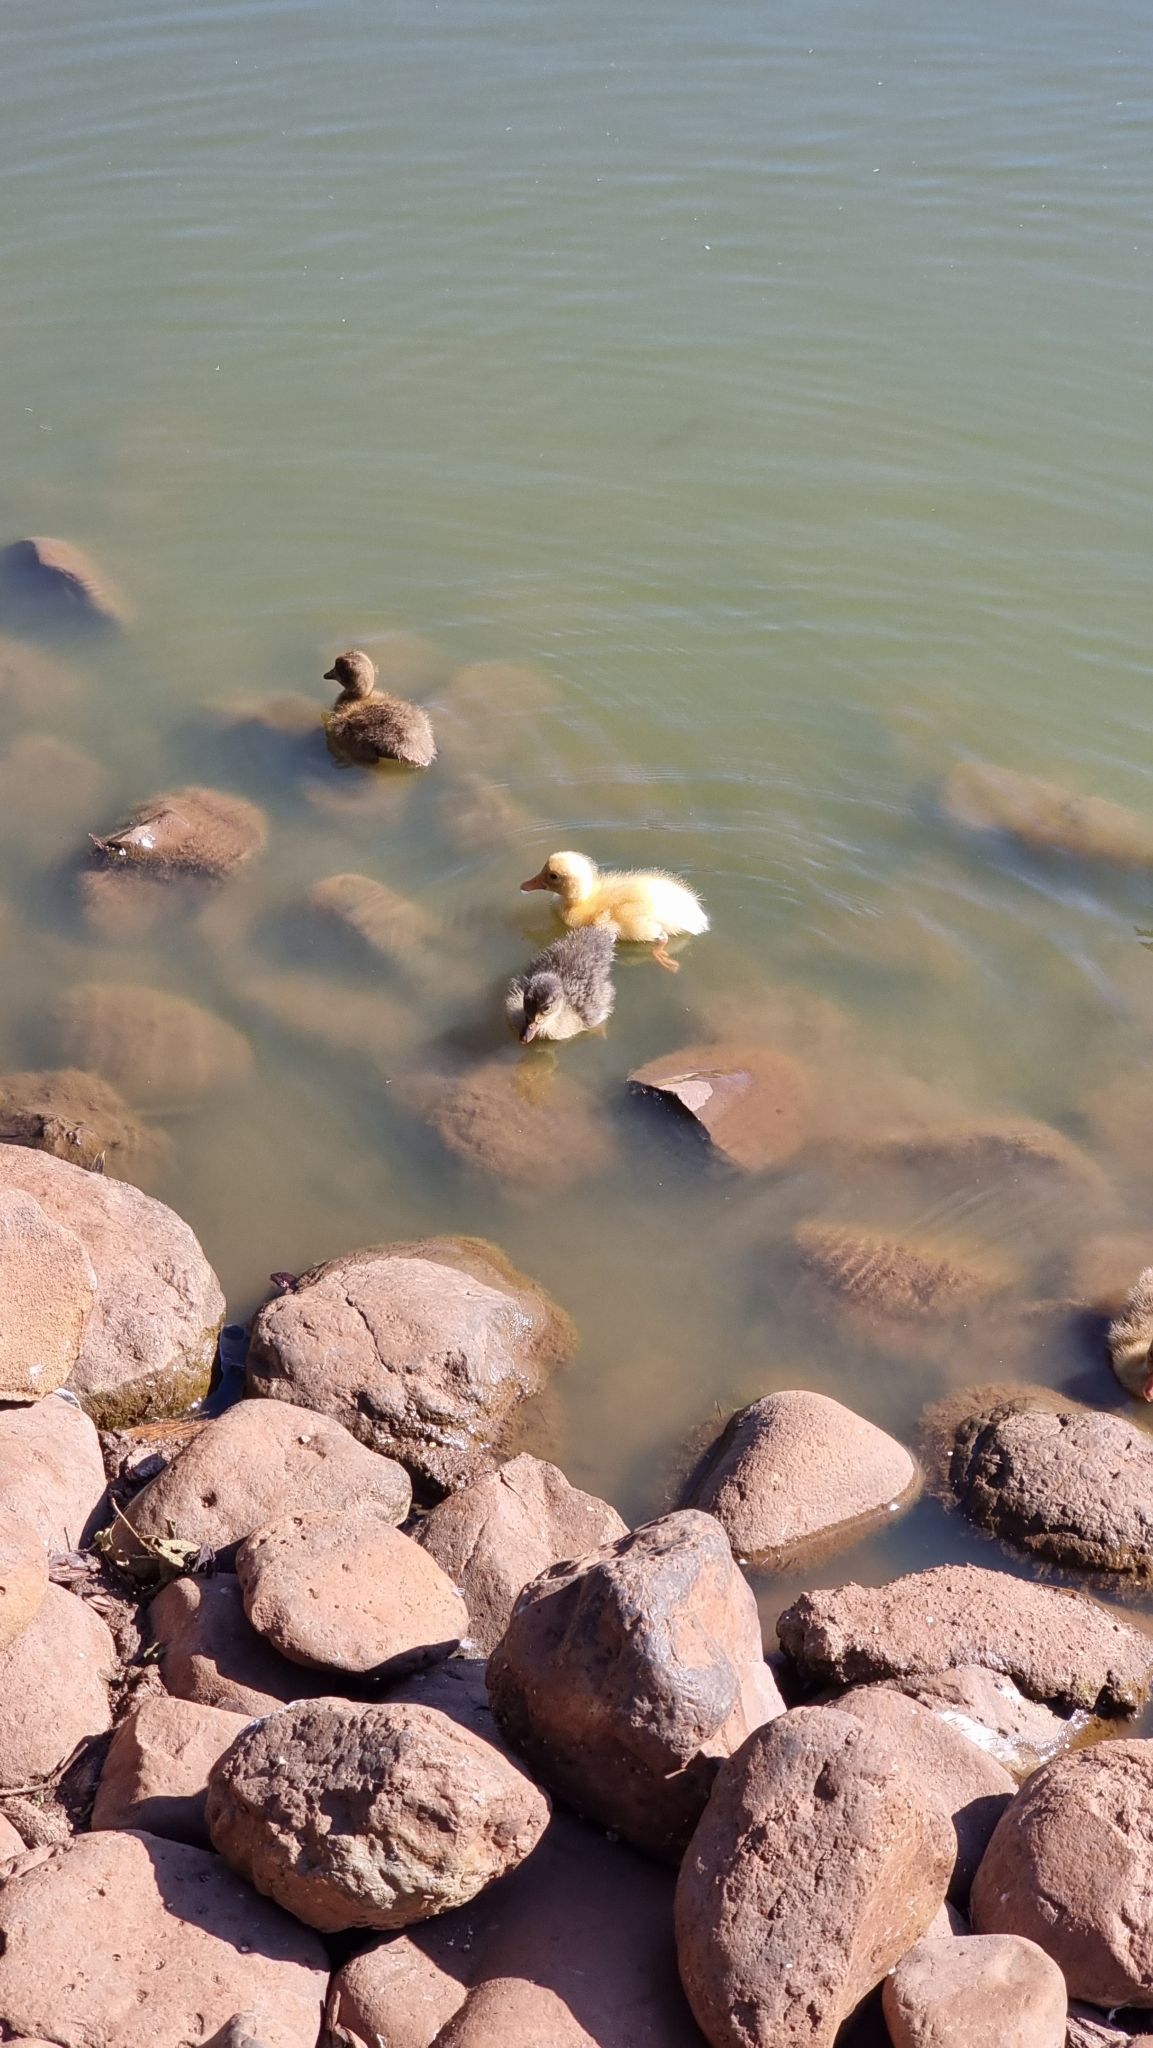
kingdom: Animalia
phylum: Chordata
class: Aves
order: Anseriformes
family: Anatidae
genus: Anas
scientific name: Anas platyrhynchos
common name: Mallard
